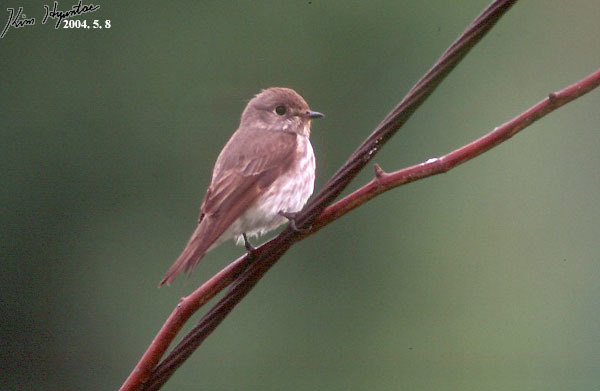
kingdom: Animalia
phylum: Chordata
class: Aves
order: Passeriformes
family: Muscicapidae
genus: Muscicapa
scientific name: Muscicapa griseisticta
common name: Gray-streaked flycatcher
